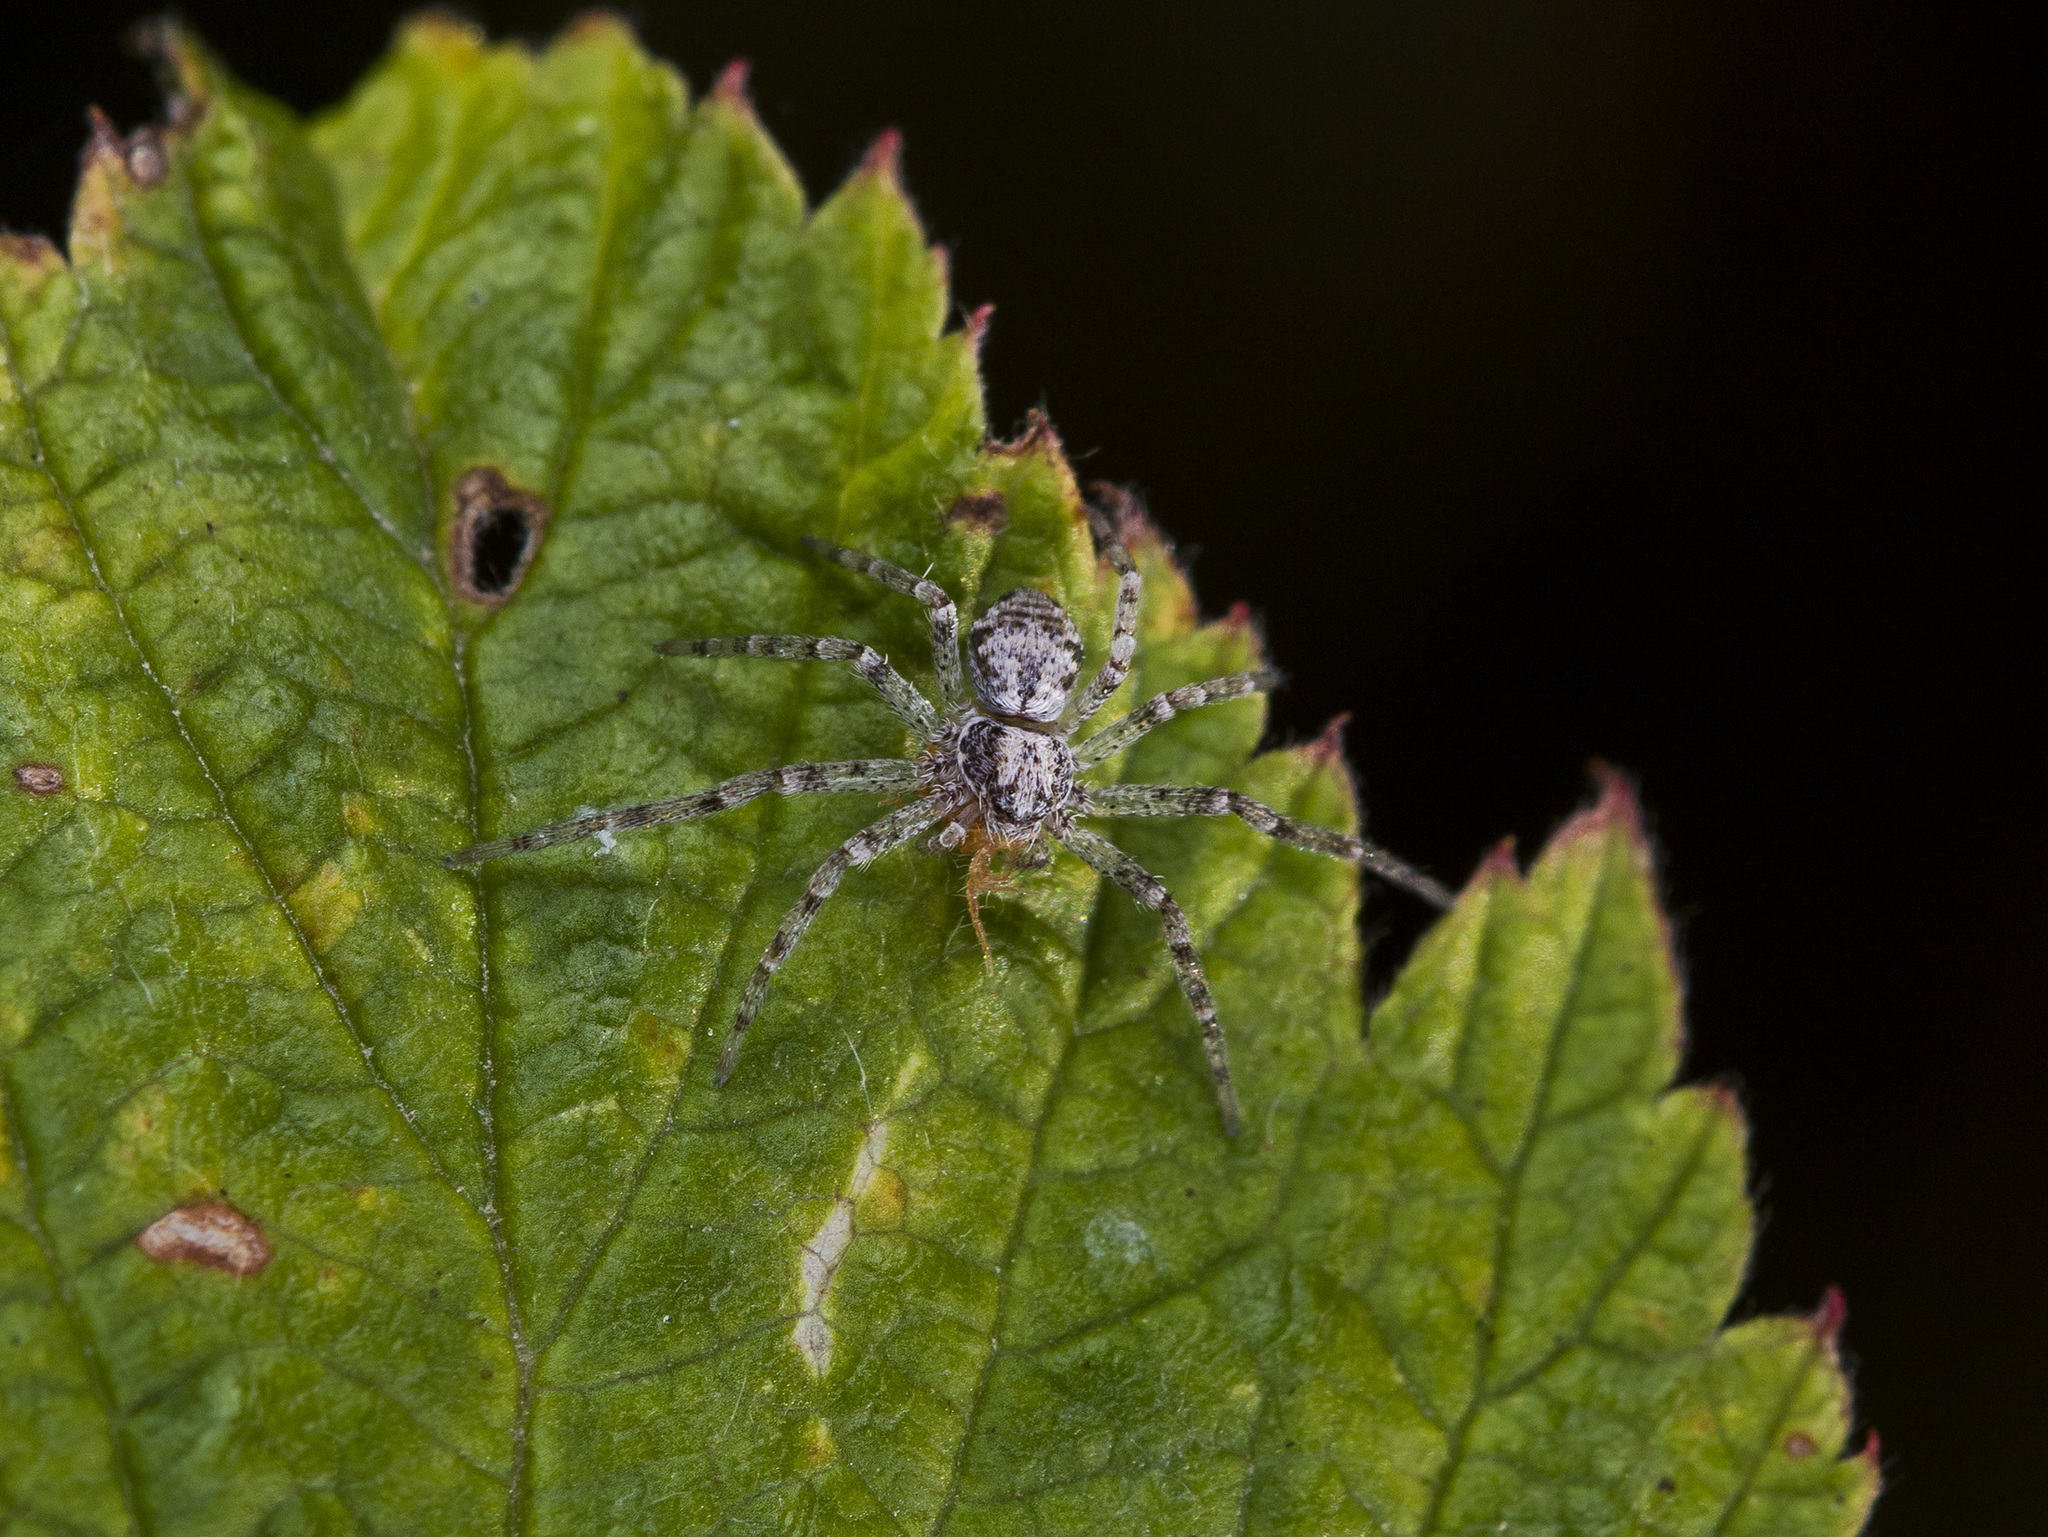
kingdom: Animalia
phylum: Arthropoda
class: Arachnida
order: Araneae
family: Philodromidae
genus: Rhysodromus
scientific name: Rhysodromus pictus
